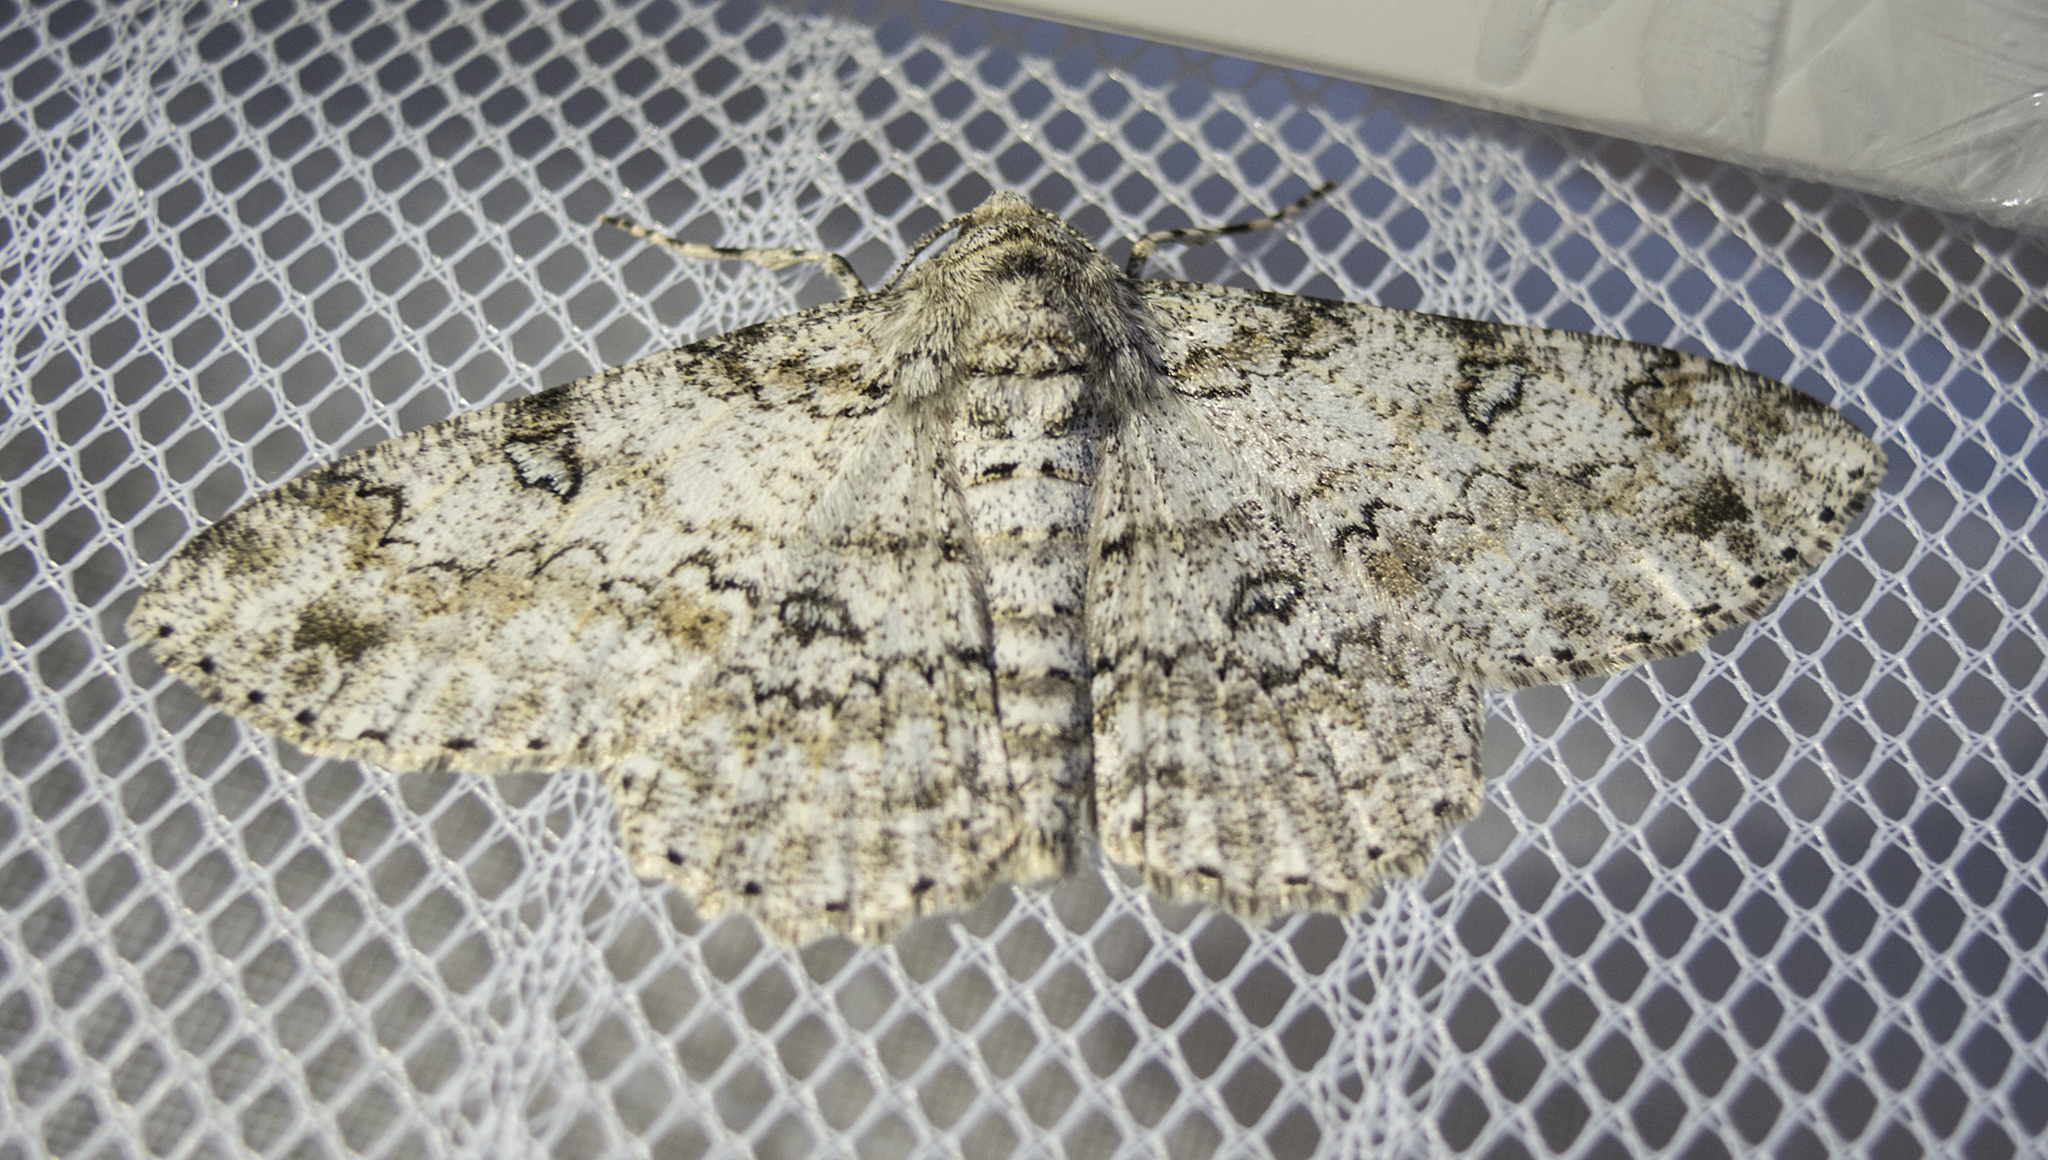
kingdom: Animalia
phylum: Arthropoda
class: Insecta
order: Lepidoptera
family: Geometridae
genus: Ascotis
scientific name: Ascotis selenaria
